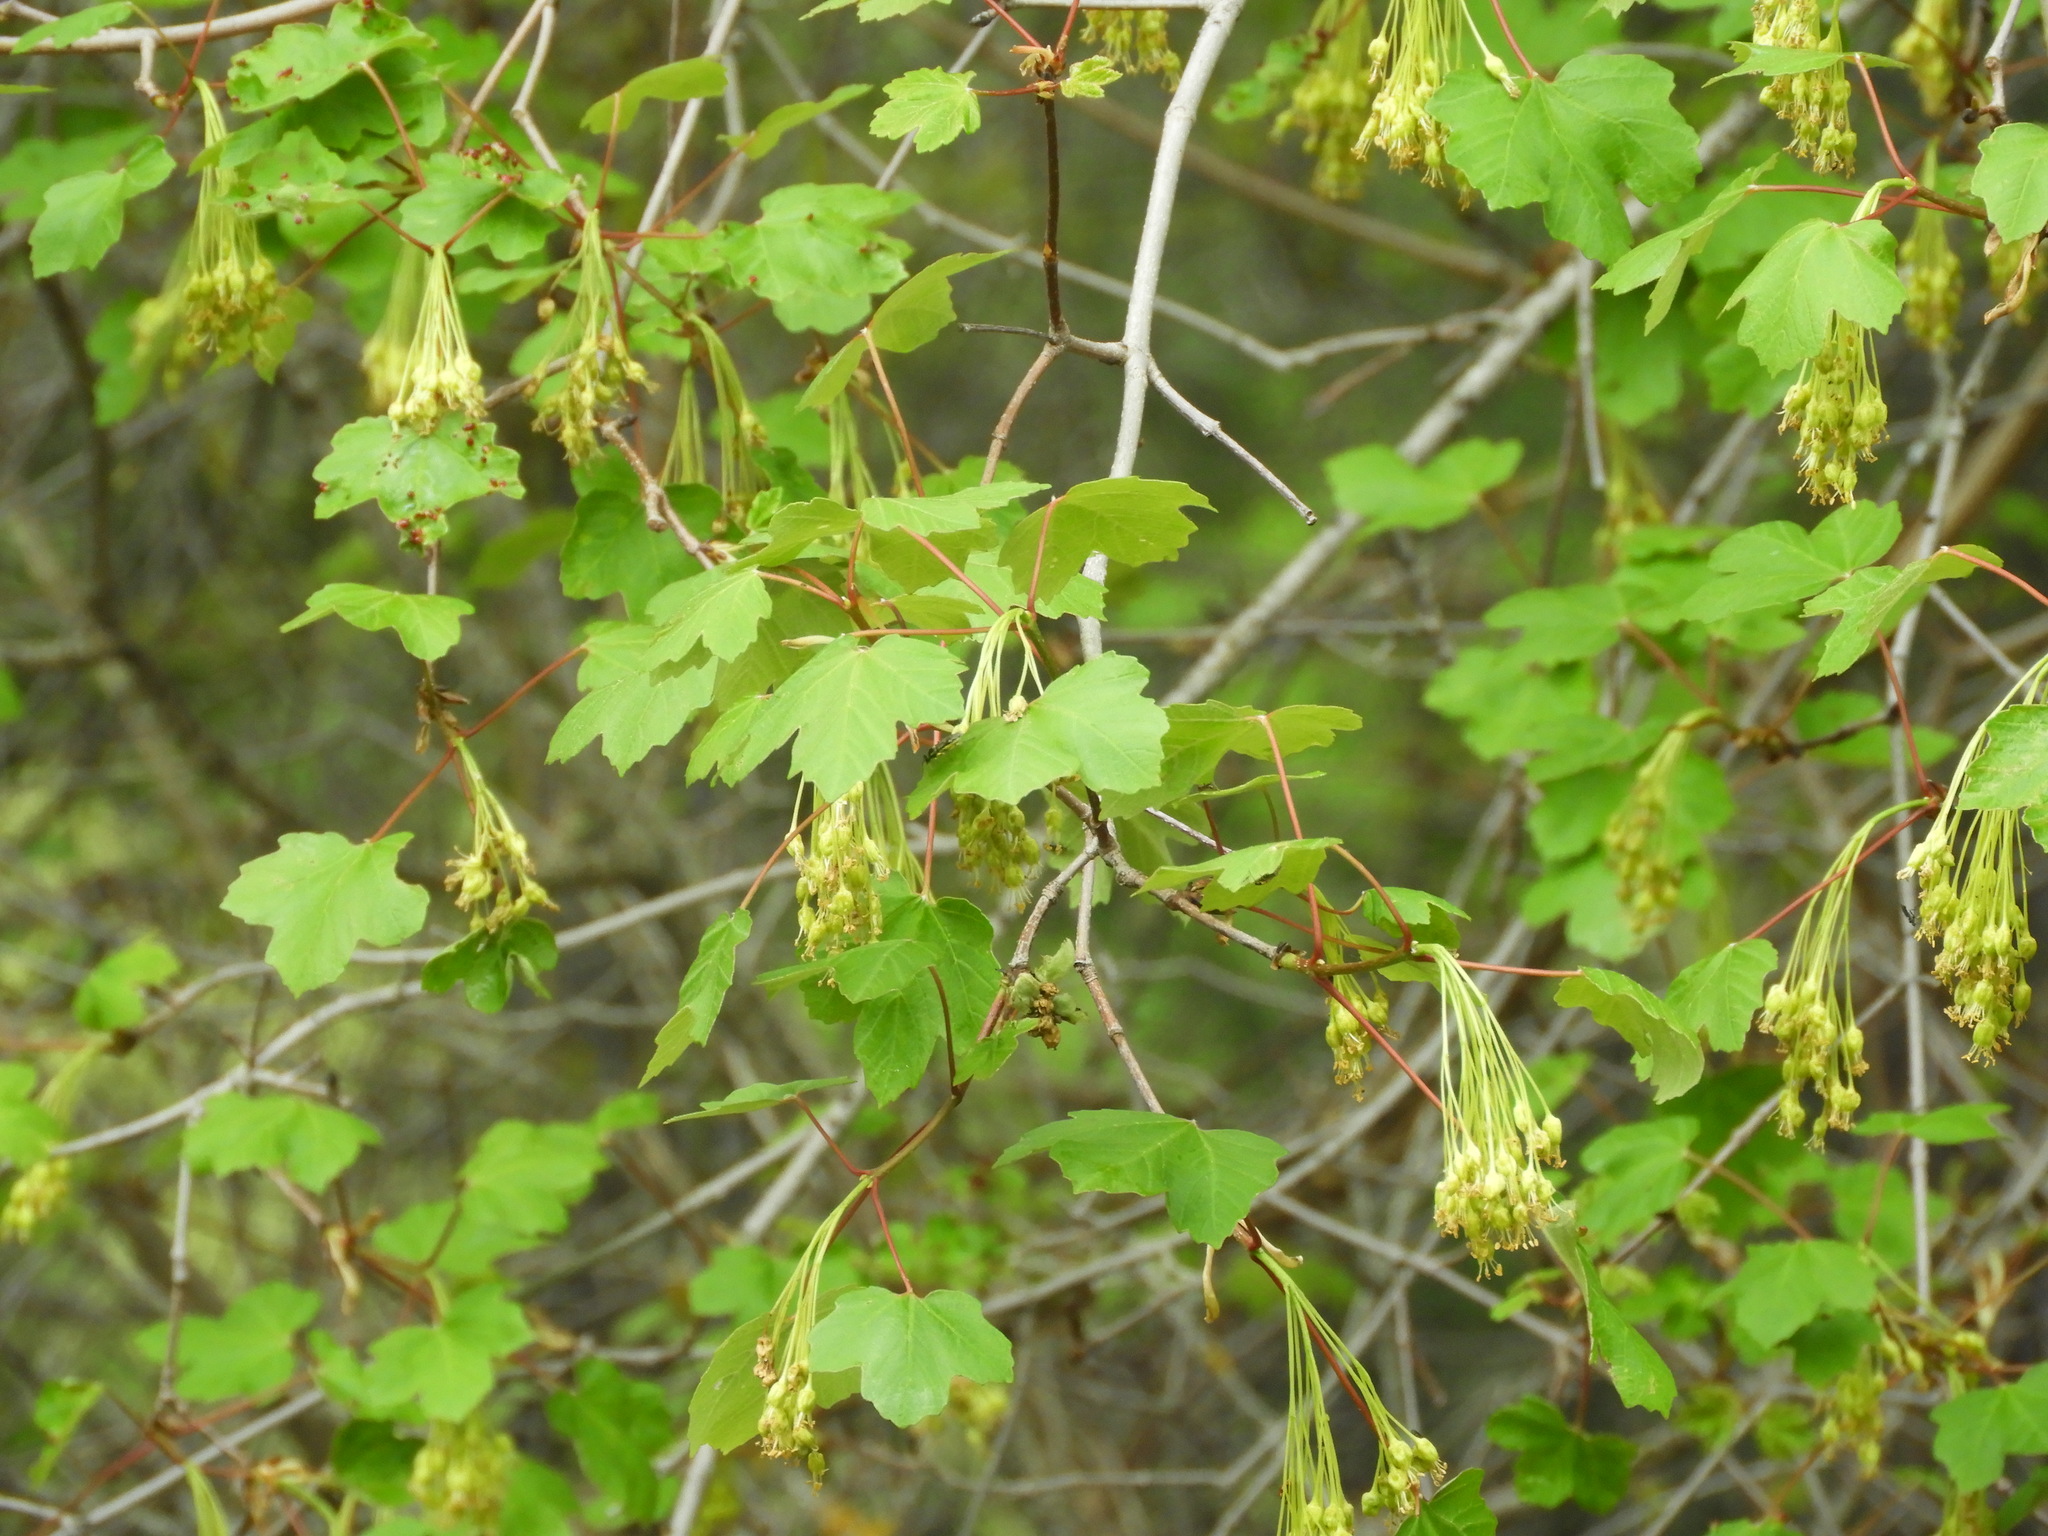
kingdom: Plantae
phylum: Tracheophyta
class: Magnoliopsida
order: Sapindales
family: Sapindaceae
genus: Acer
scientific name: Acer granatense
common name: Spanish maple
